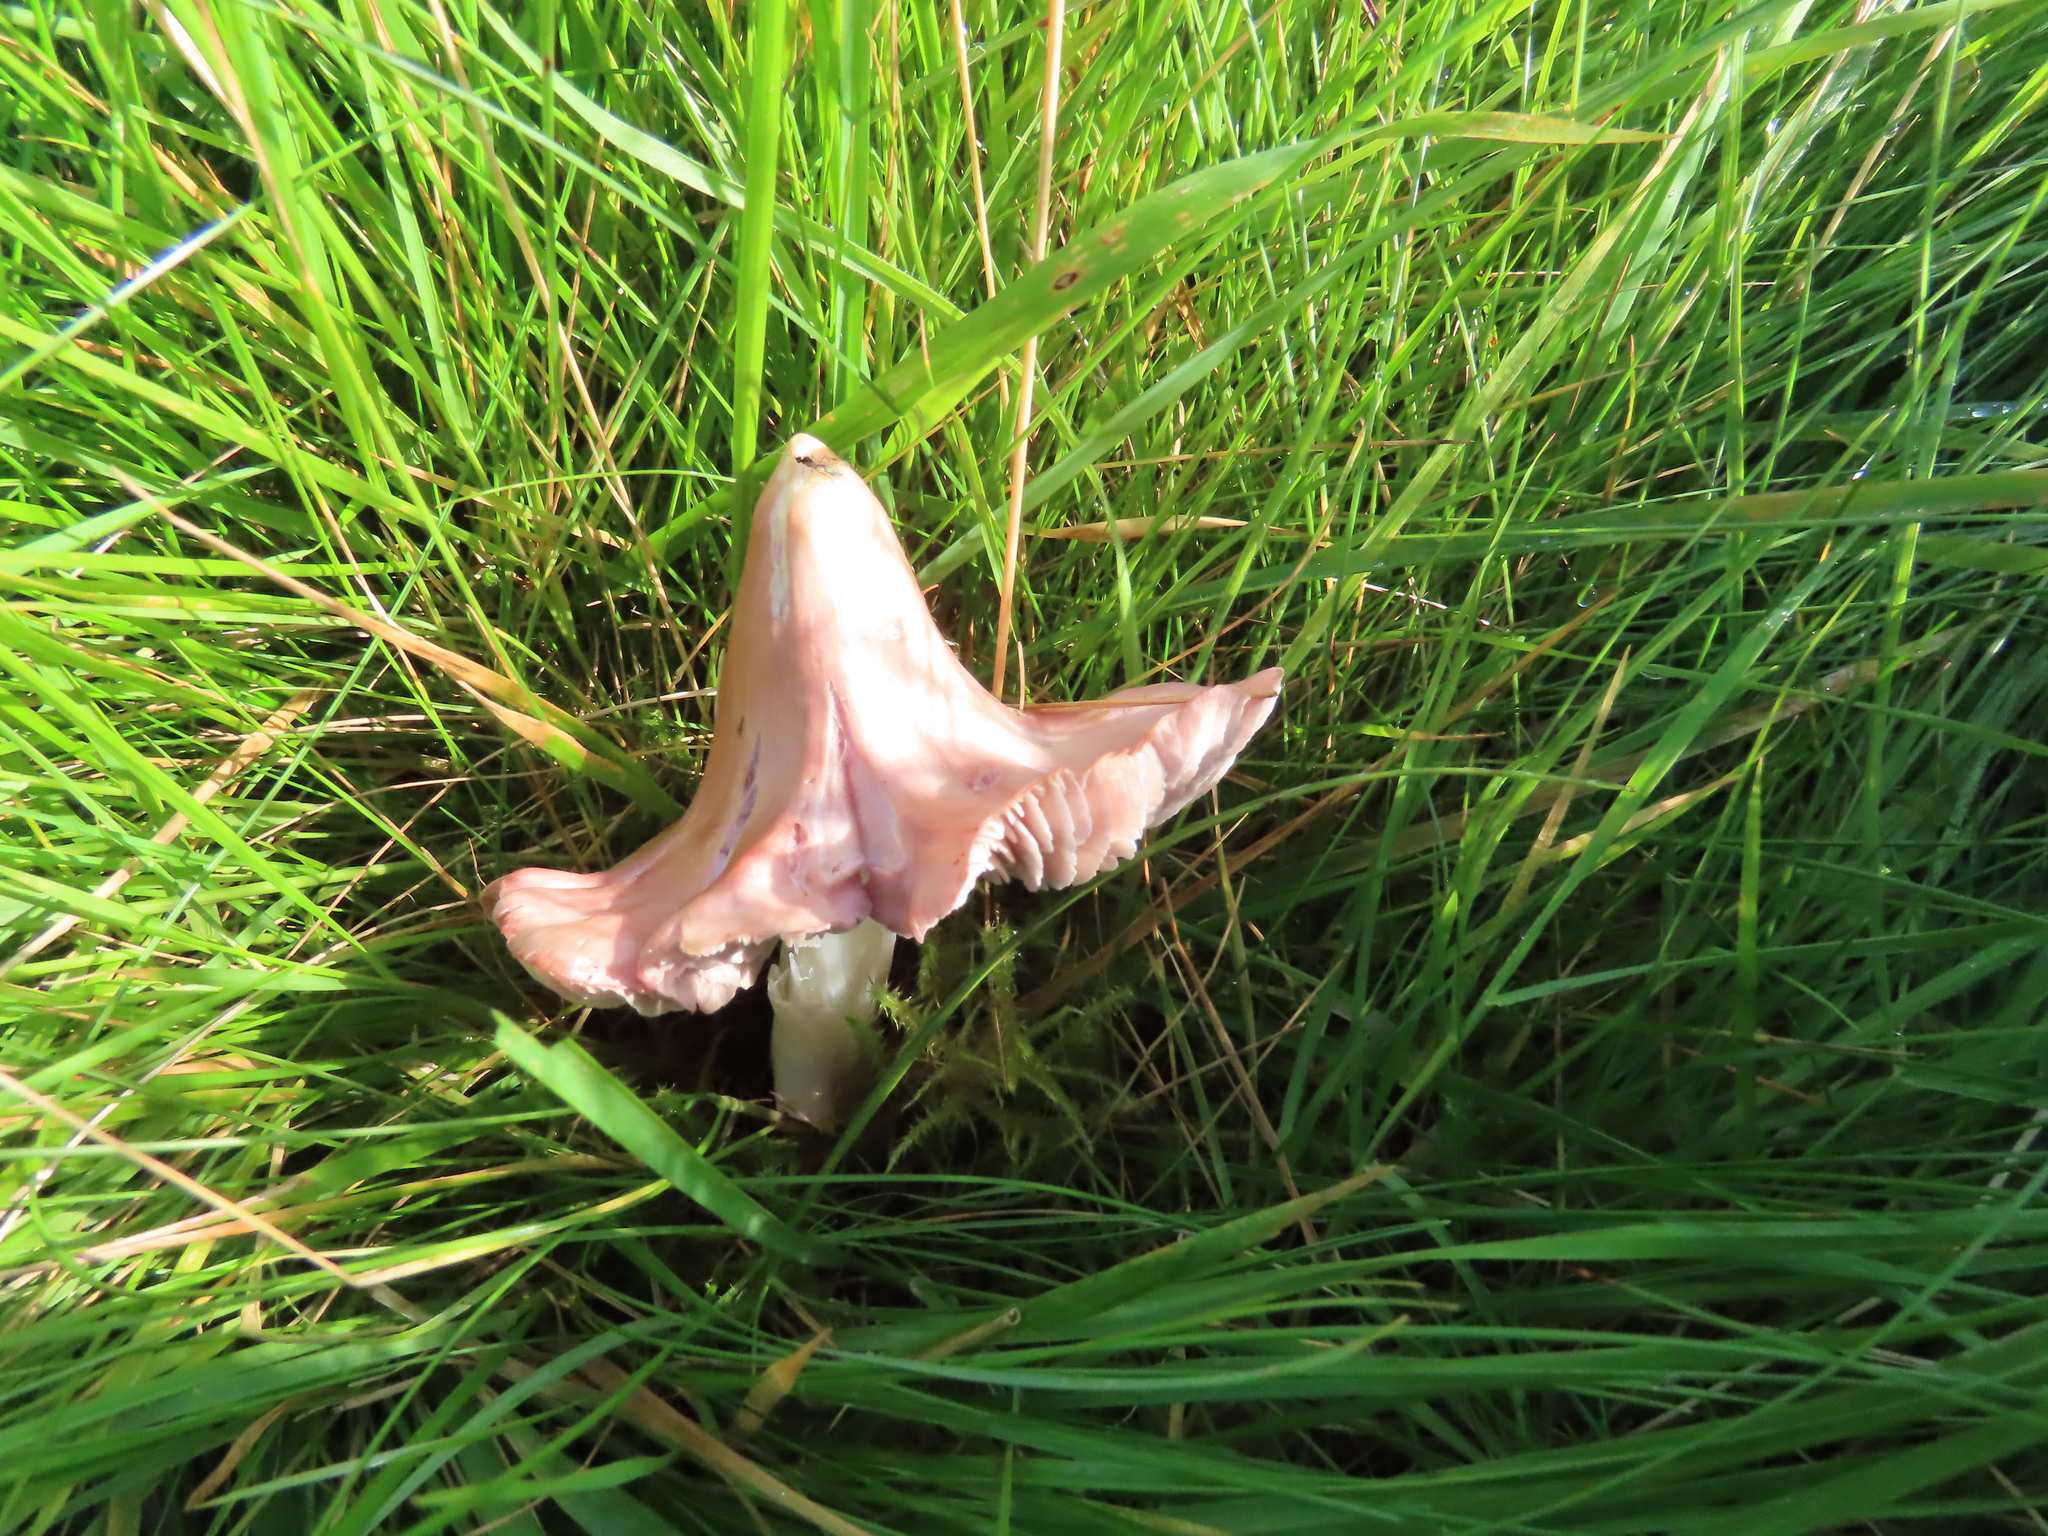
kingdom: Fungi
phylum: Basidiomycota
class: Agaricomycetes
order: Agaricales
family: Hygrophoraceae
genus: Porpolomopsis
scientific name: Porpolomopsis calyptriformis
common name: Pink waxcap
